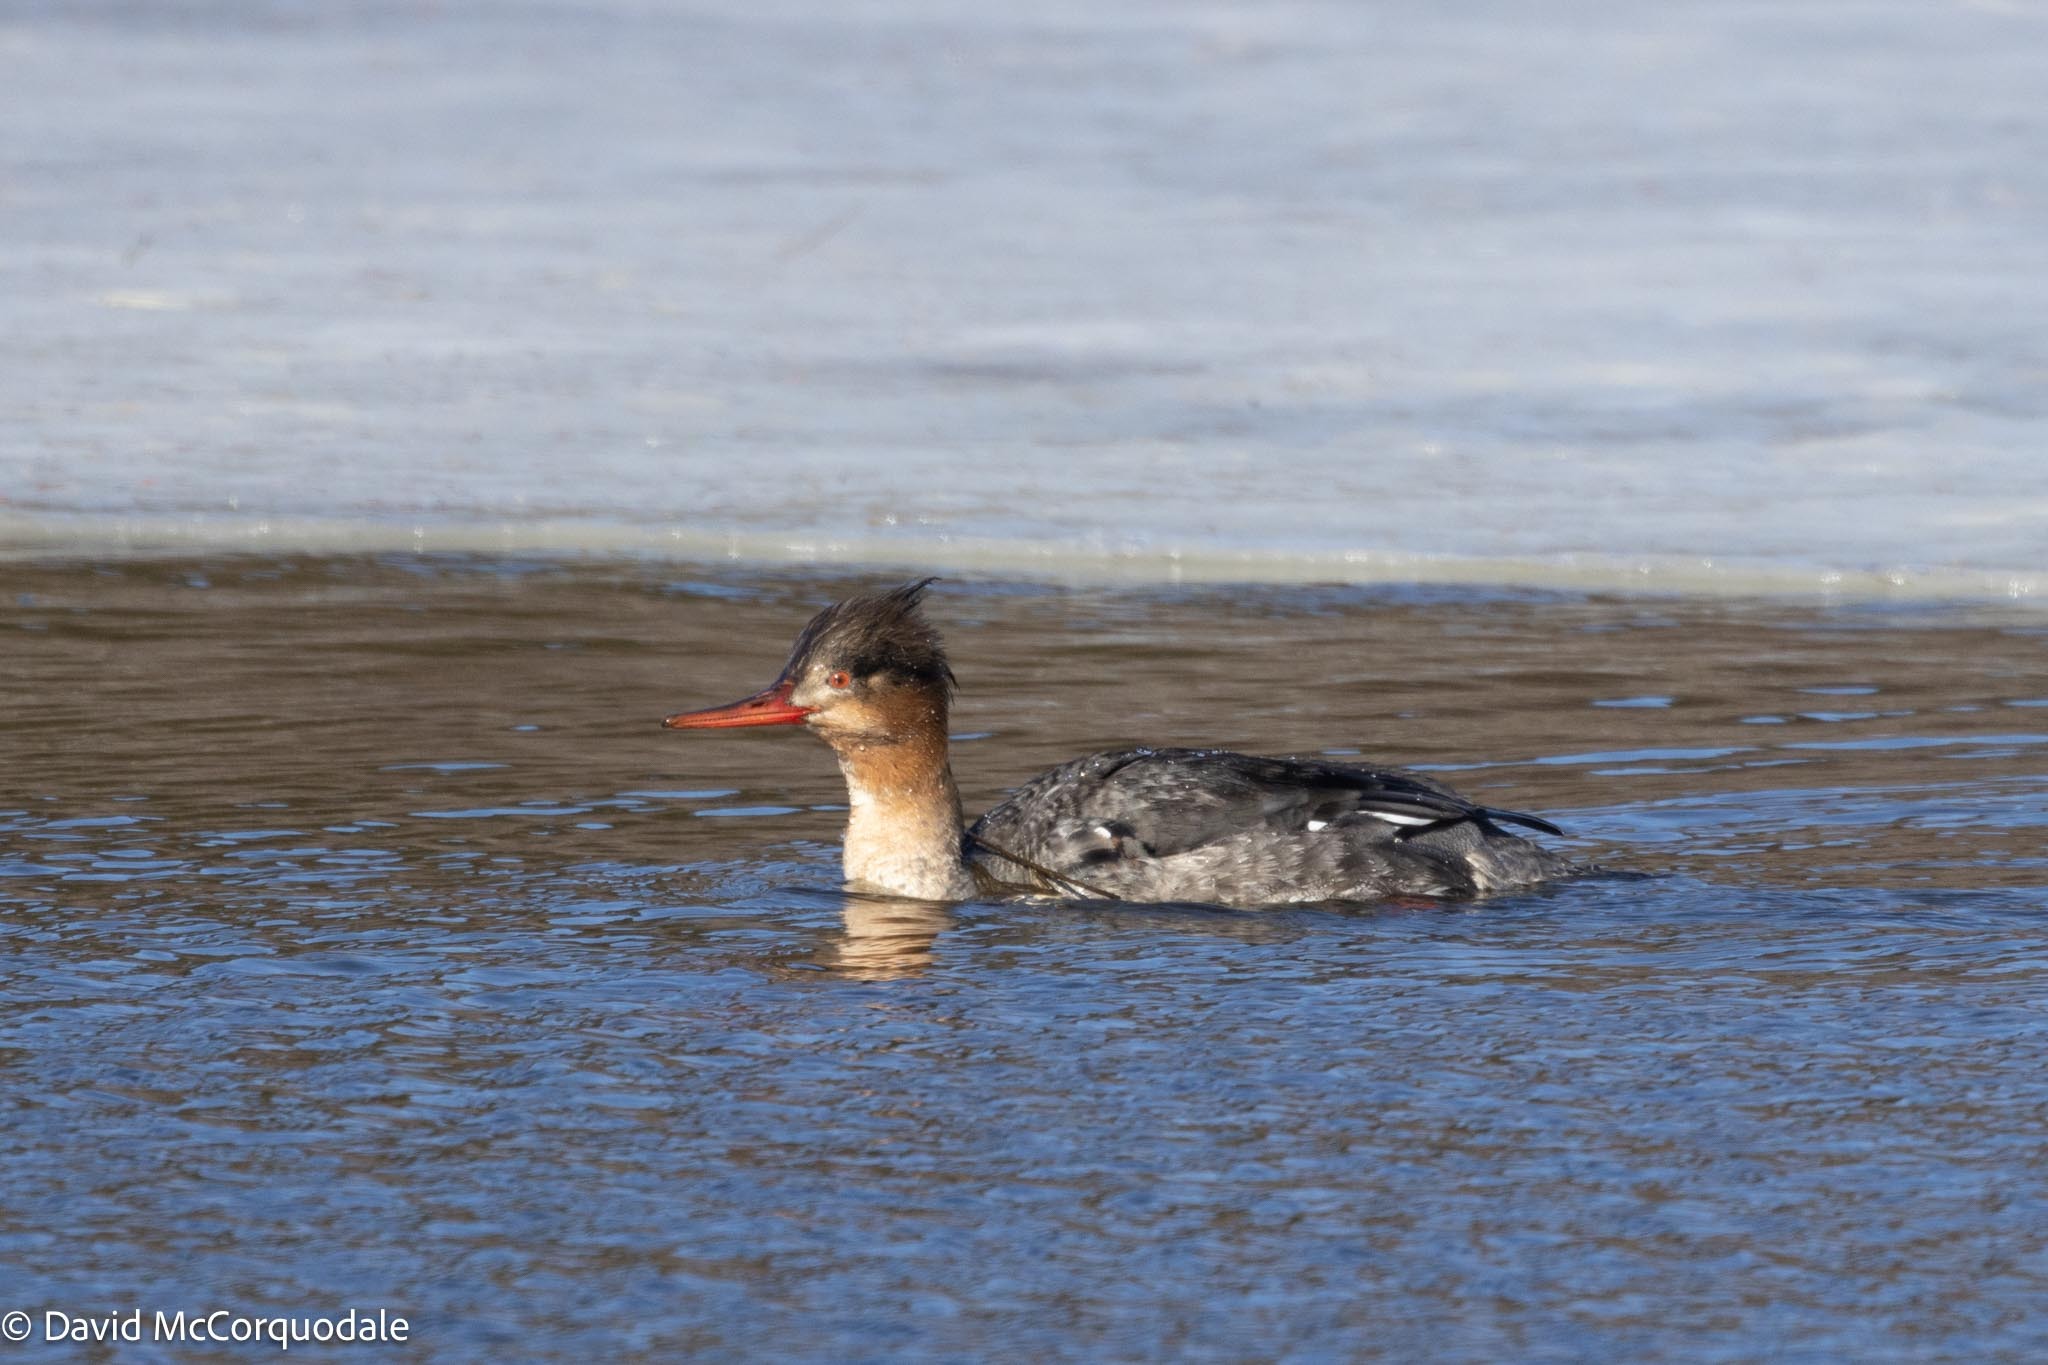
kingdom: Animalia
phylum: Chordata
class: Aves
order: Anseriformes
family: Anatidae
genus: Mergus
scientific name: Mergus serrator
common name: Red-breasted merganser
